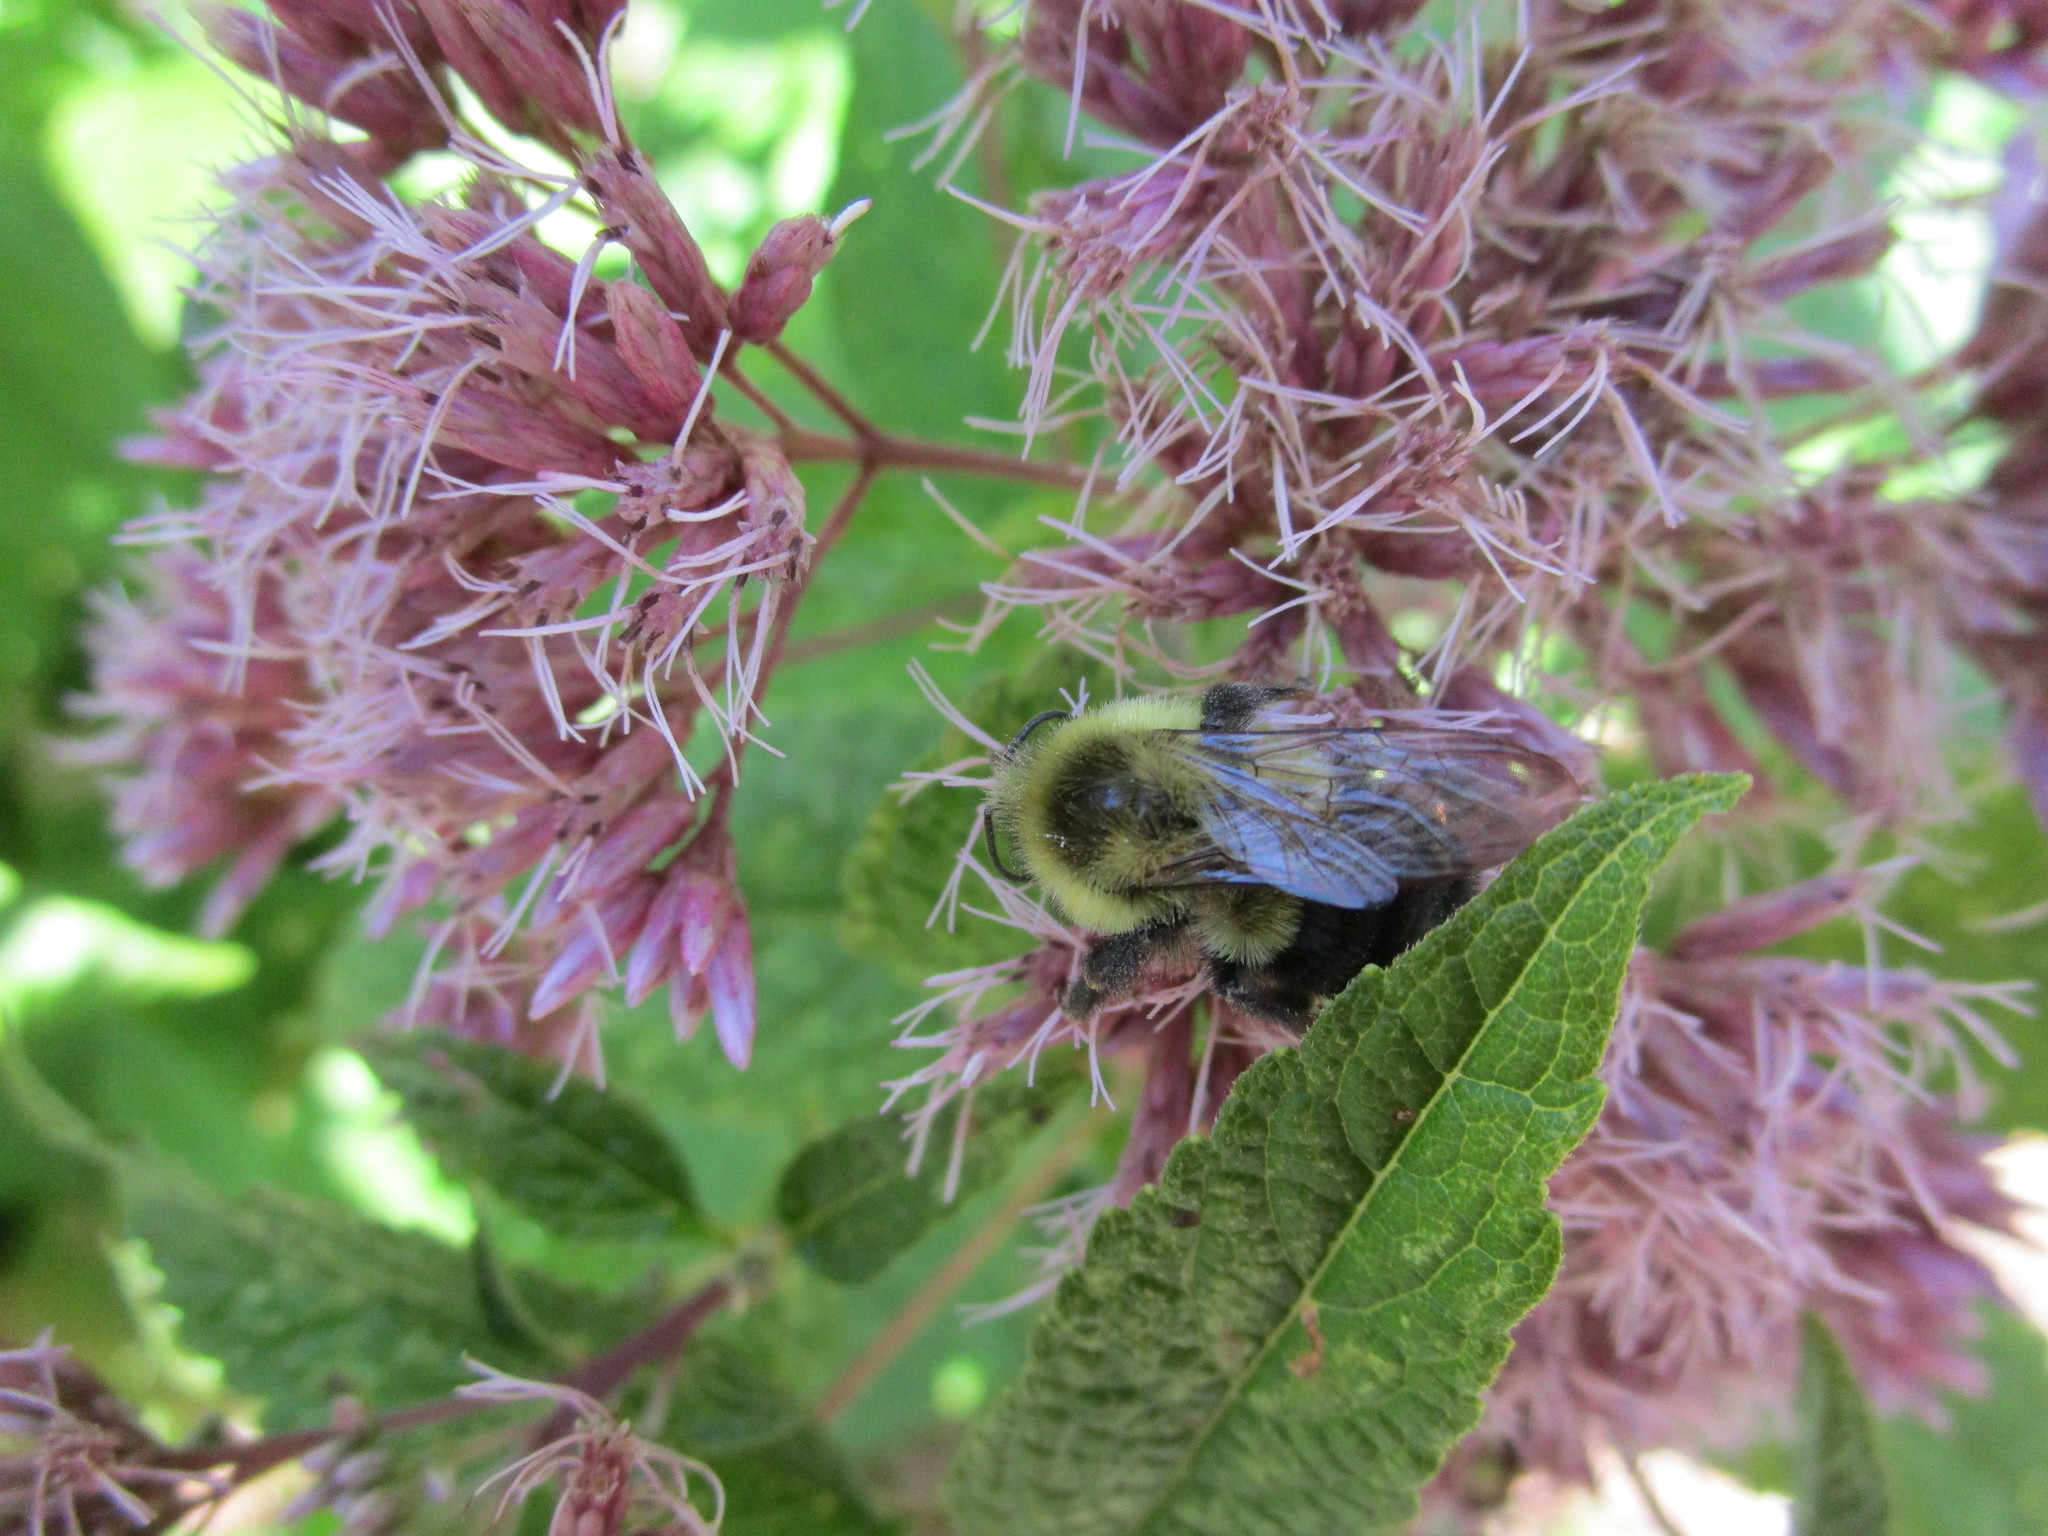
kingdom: Animalia
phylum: Arthropoda
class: Insecta
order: Hymenoptera
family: Apidae
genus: Bombus
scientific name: Bombus impatiens
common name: Common eastern bumble bee
